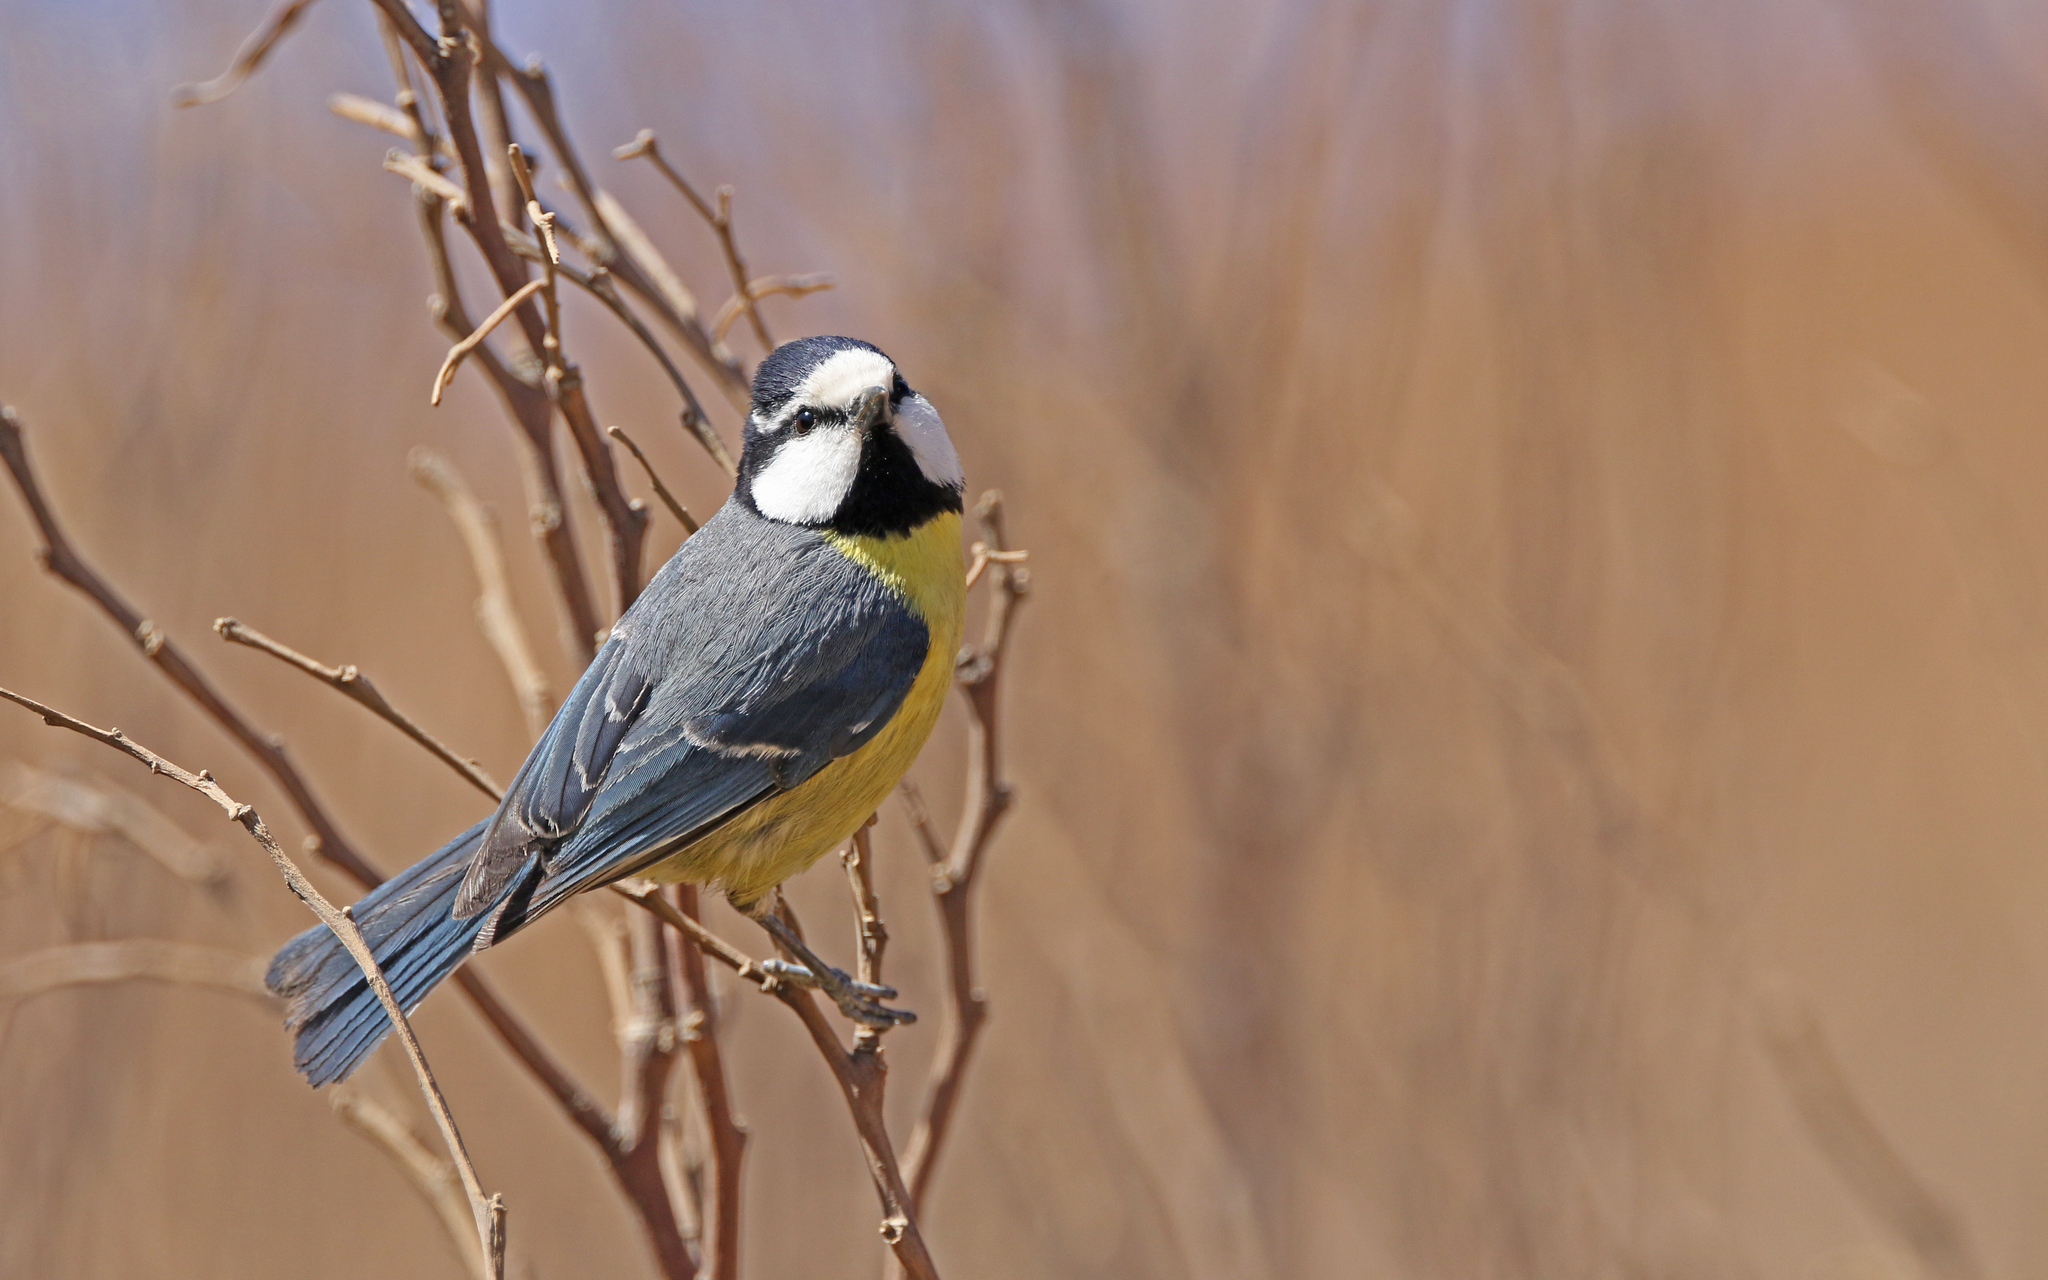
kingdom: Animalia
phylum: Chordata
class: Aves
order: Passeriformes
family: Paridae
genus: Cyanistes
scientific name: Cyanistes teneriffae
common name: African blue tit
